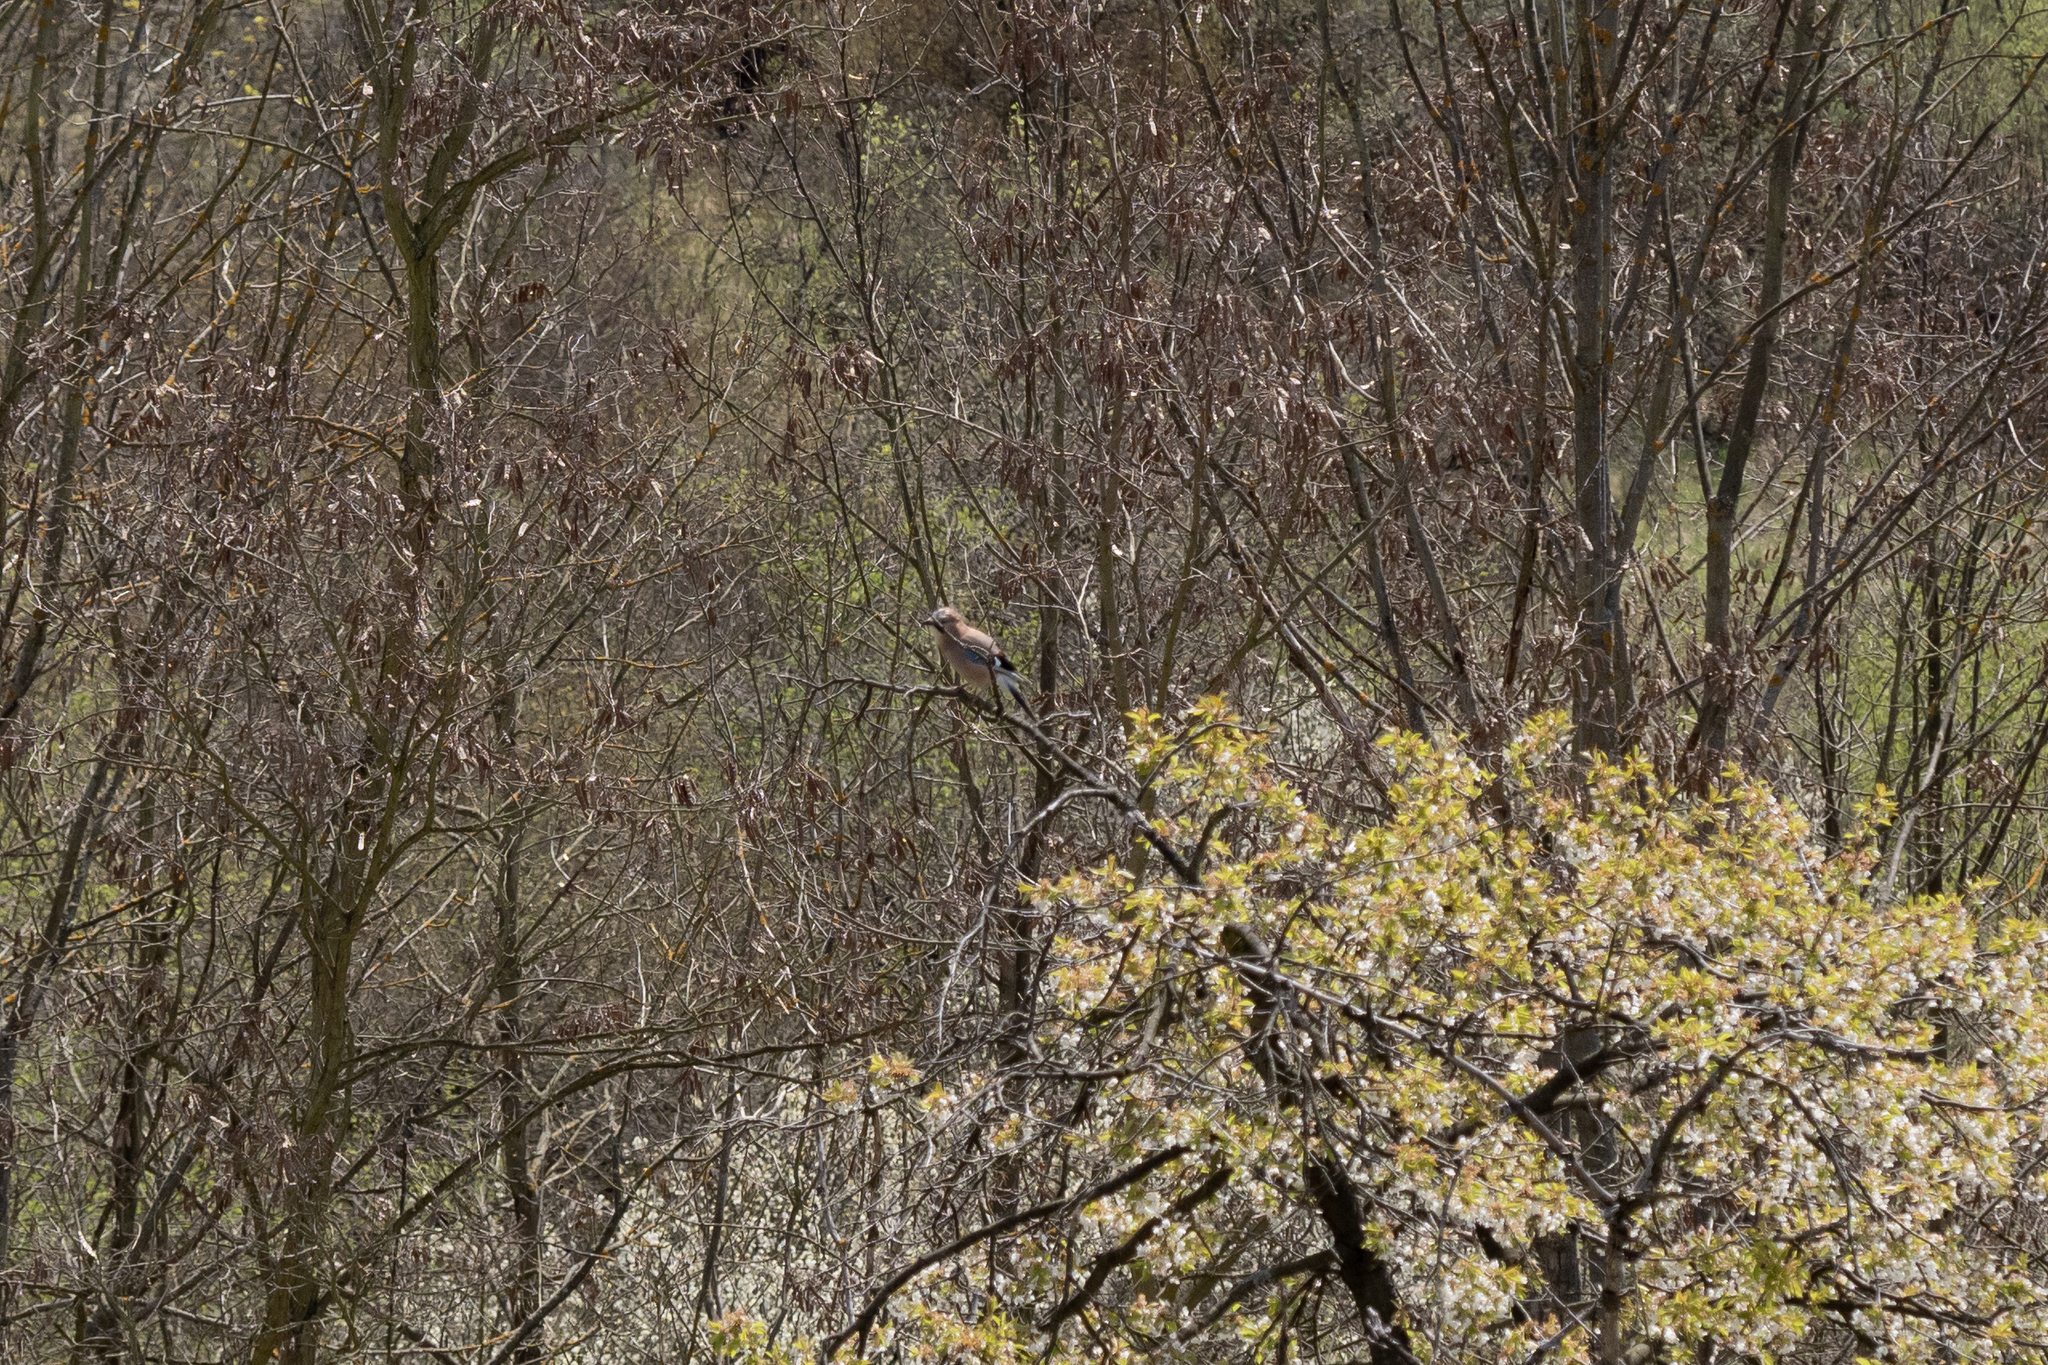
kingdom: Animalia
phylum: Chordata
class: Aves
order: Passeriformes
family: Corvidae
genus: Garrulus
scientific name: Garrulus glandarius
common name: Eurasian jay
